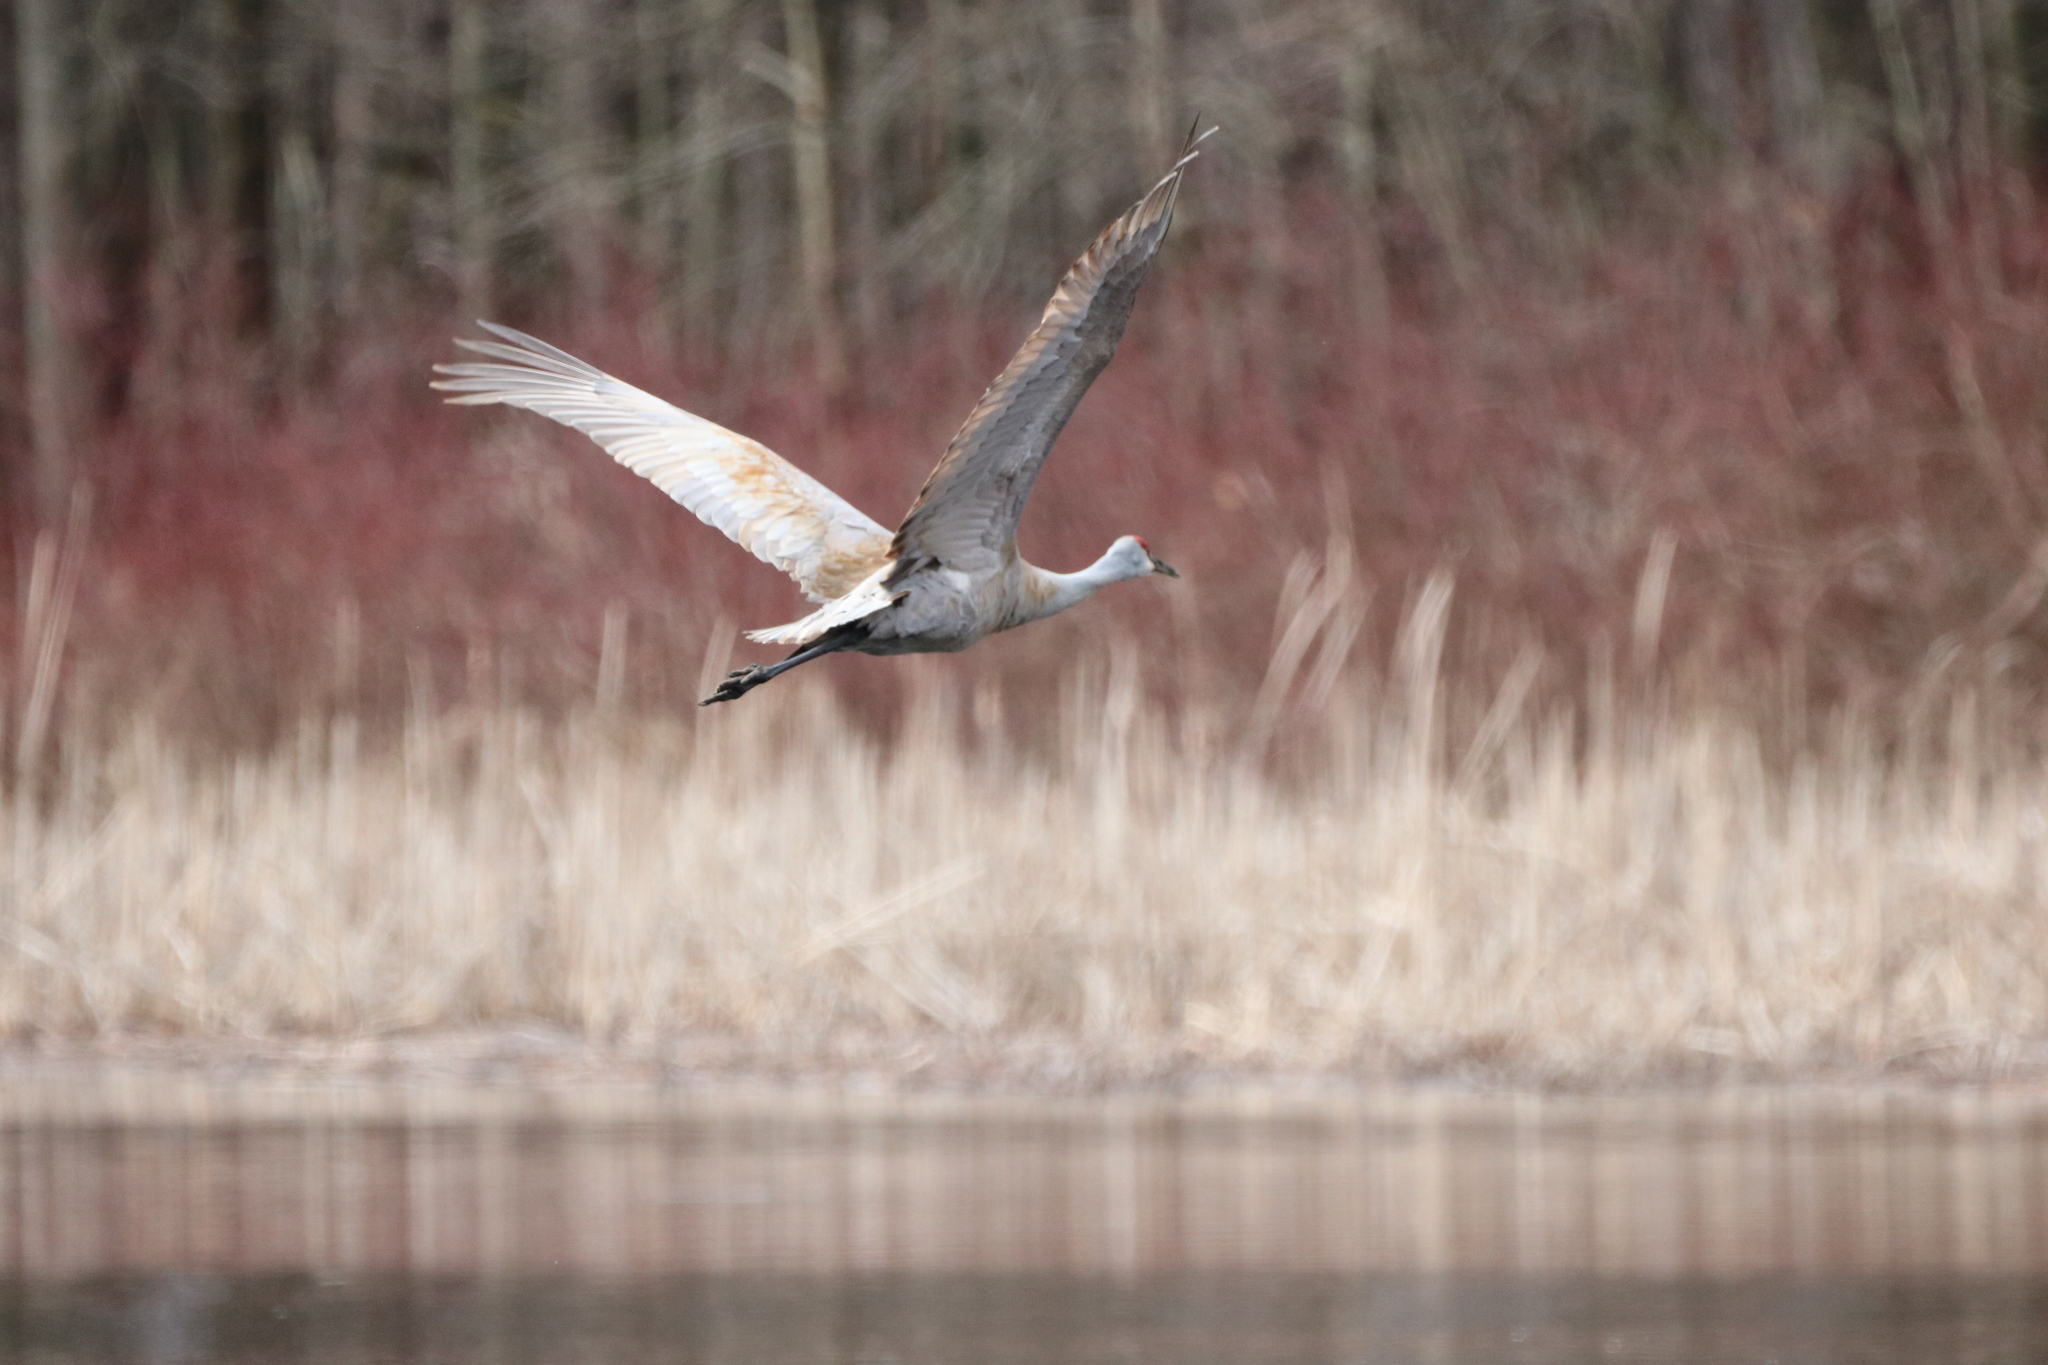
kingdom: Animalia
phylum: Chordata
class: Aves
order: Gruiformes
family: Gruidae
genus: Grus
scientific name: Grus canadensis
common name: Sandhill crane
